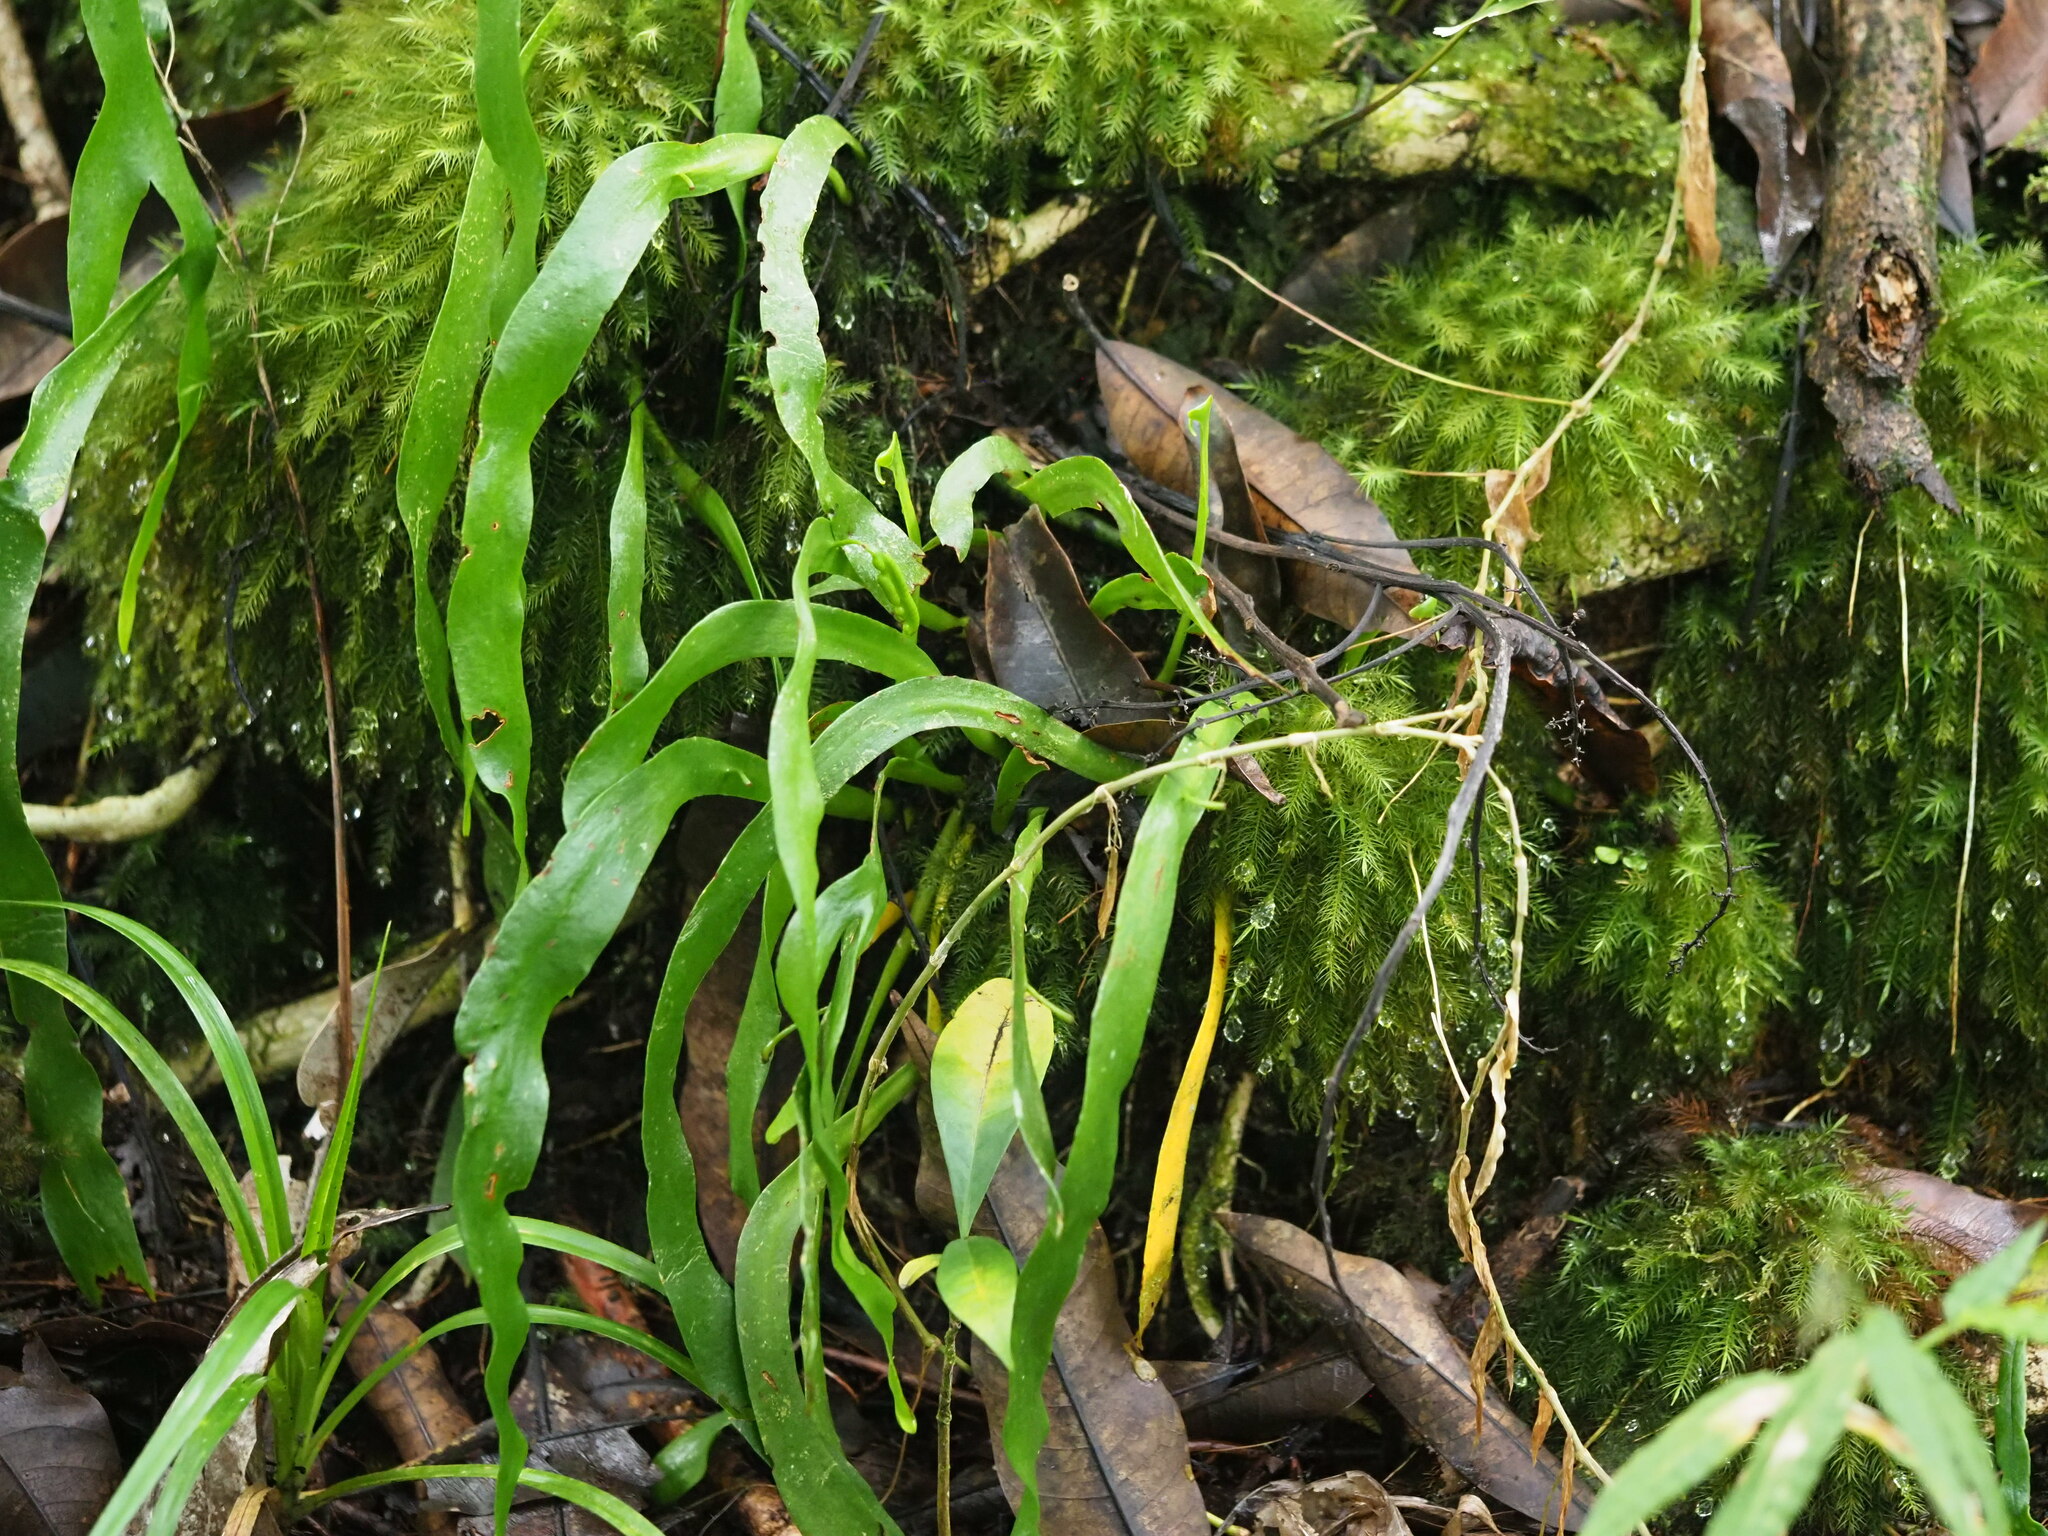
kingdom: Plantae
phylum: Tracheophyta
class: Polypodiopsida
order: Ophioglossales
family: Ophioglossaceae
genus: Ophioderma
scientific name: Ophioderma falcatum
